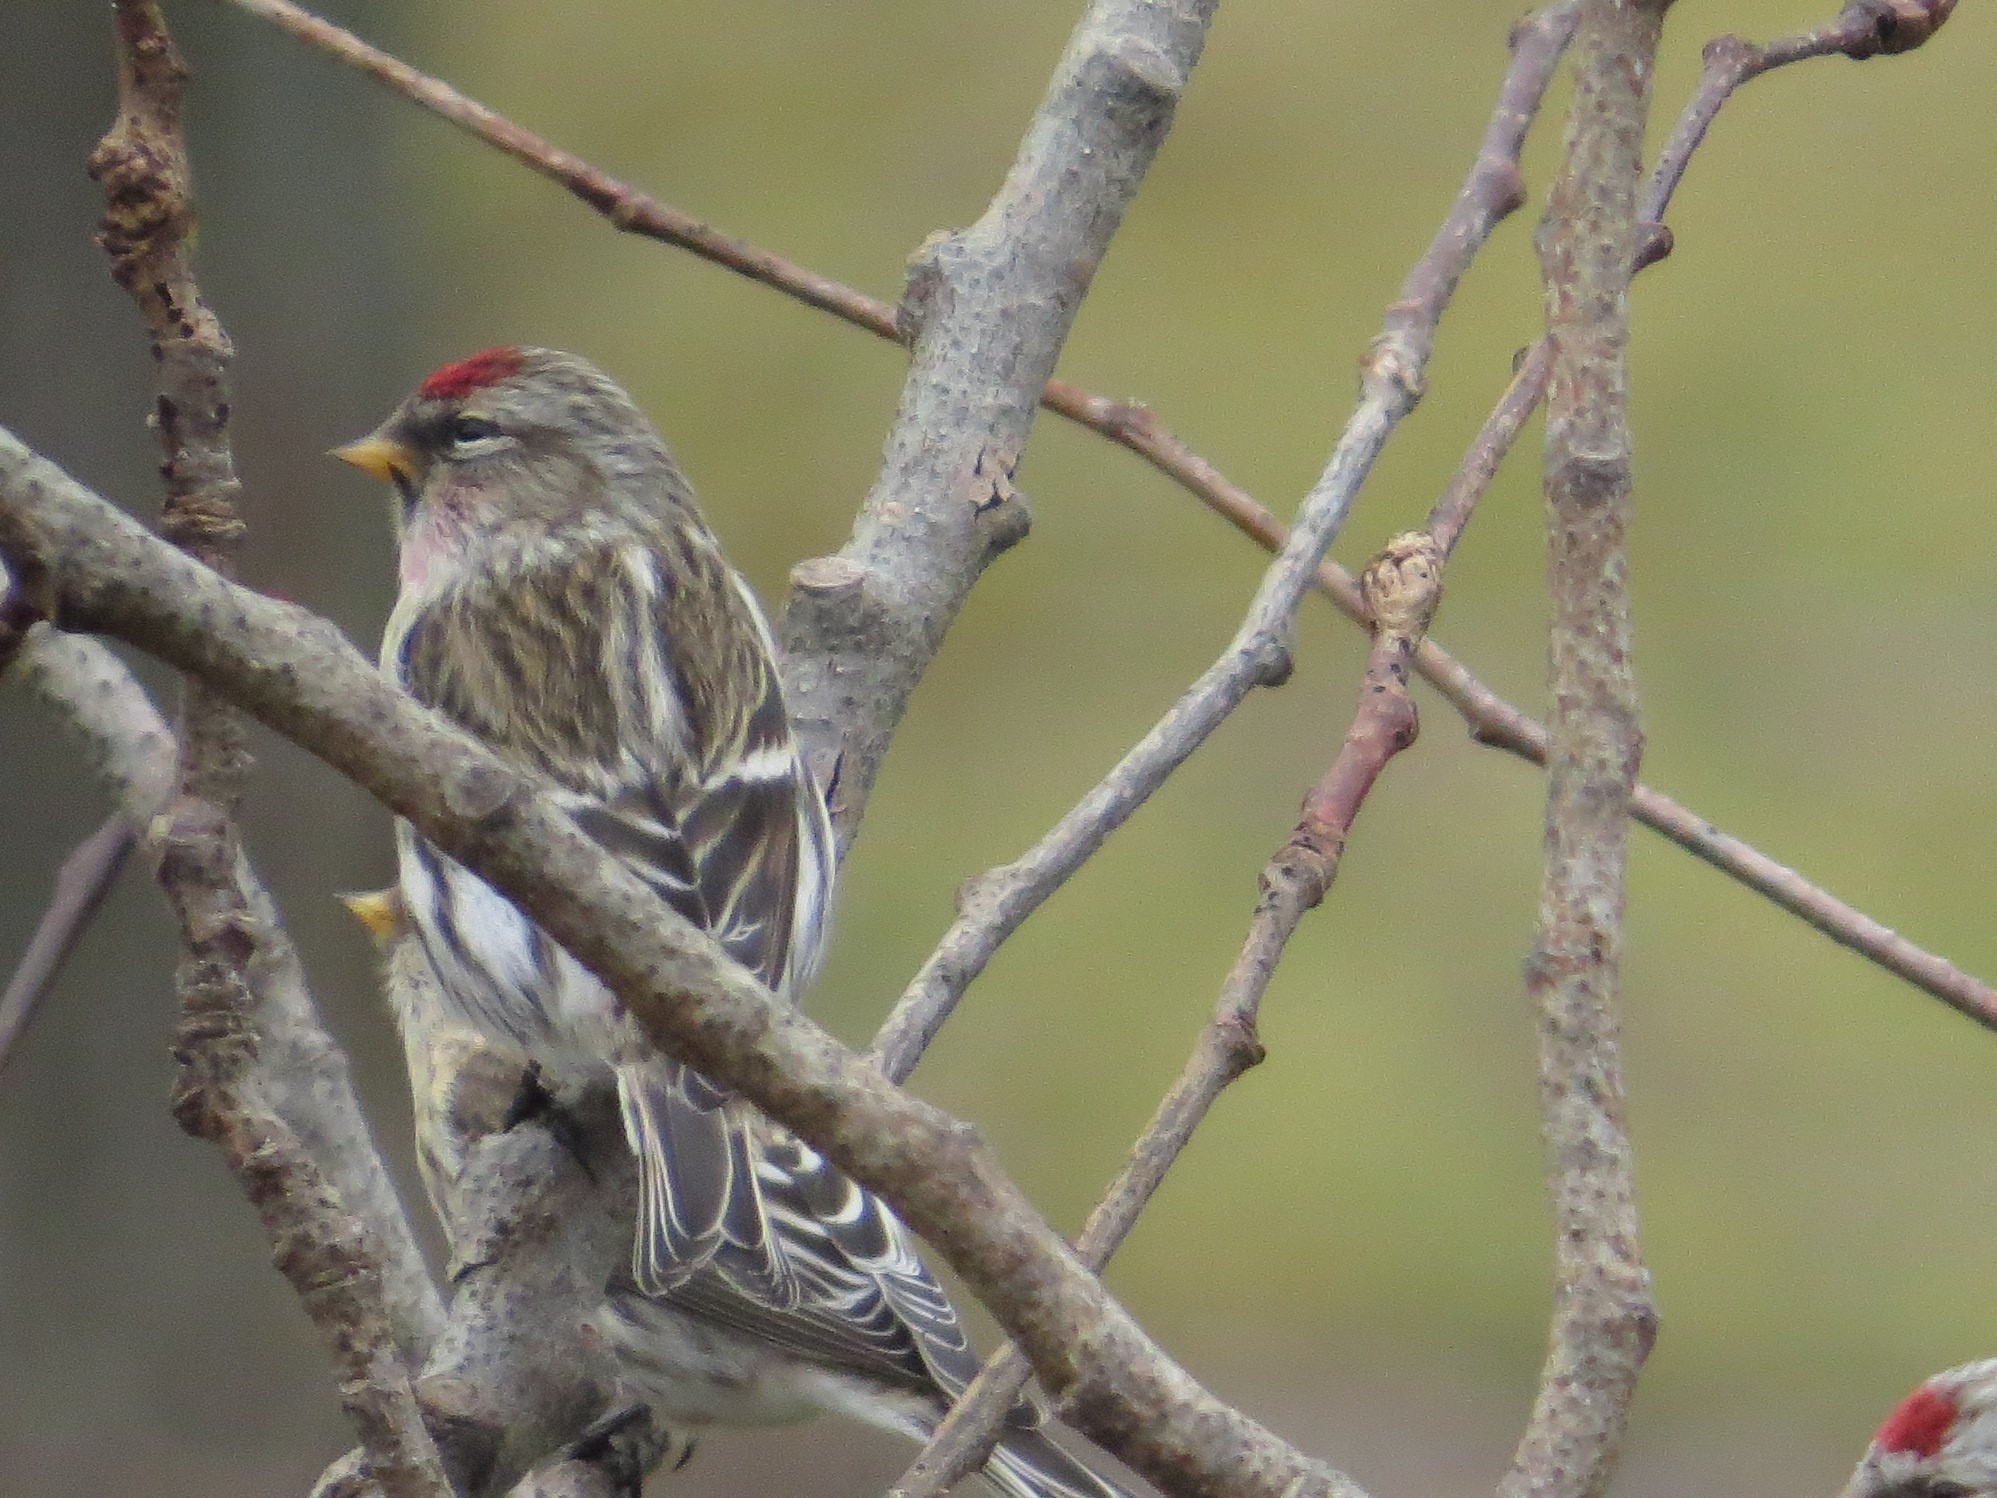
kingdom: Animalia
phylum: Chordata
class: Aves
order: Passeriformes
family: Fringillidae
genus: Acanthis
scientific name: Acanthis flammea
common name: Common redpoll
